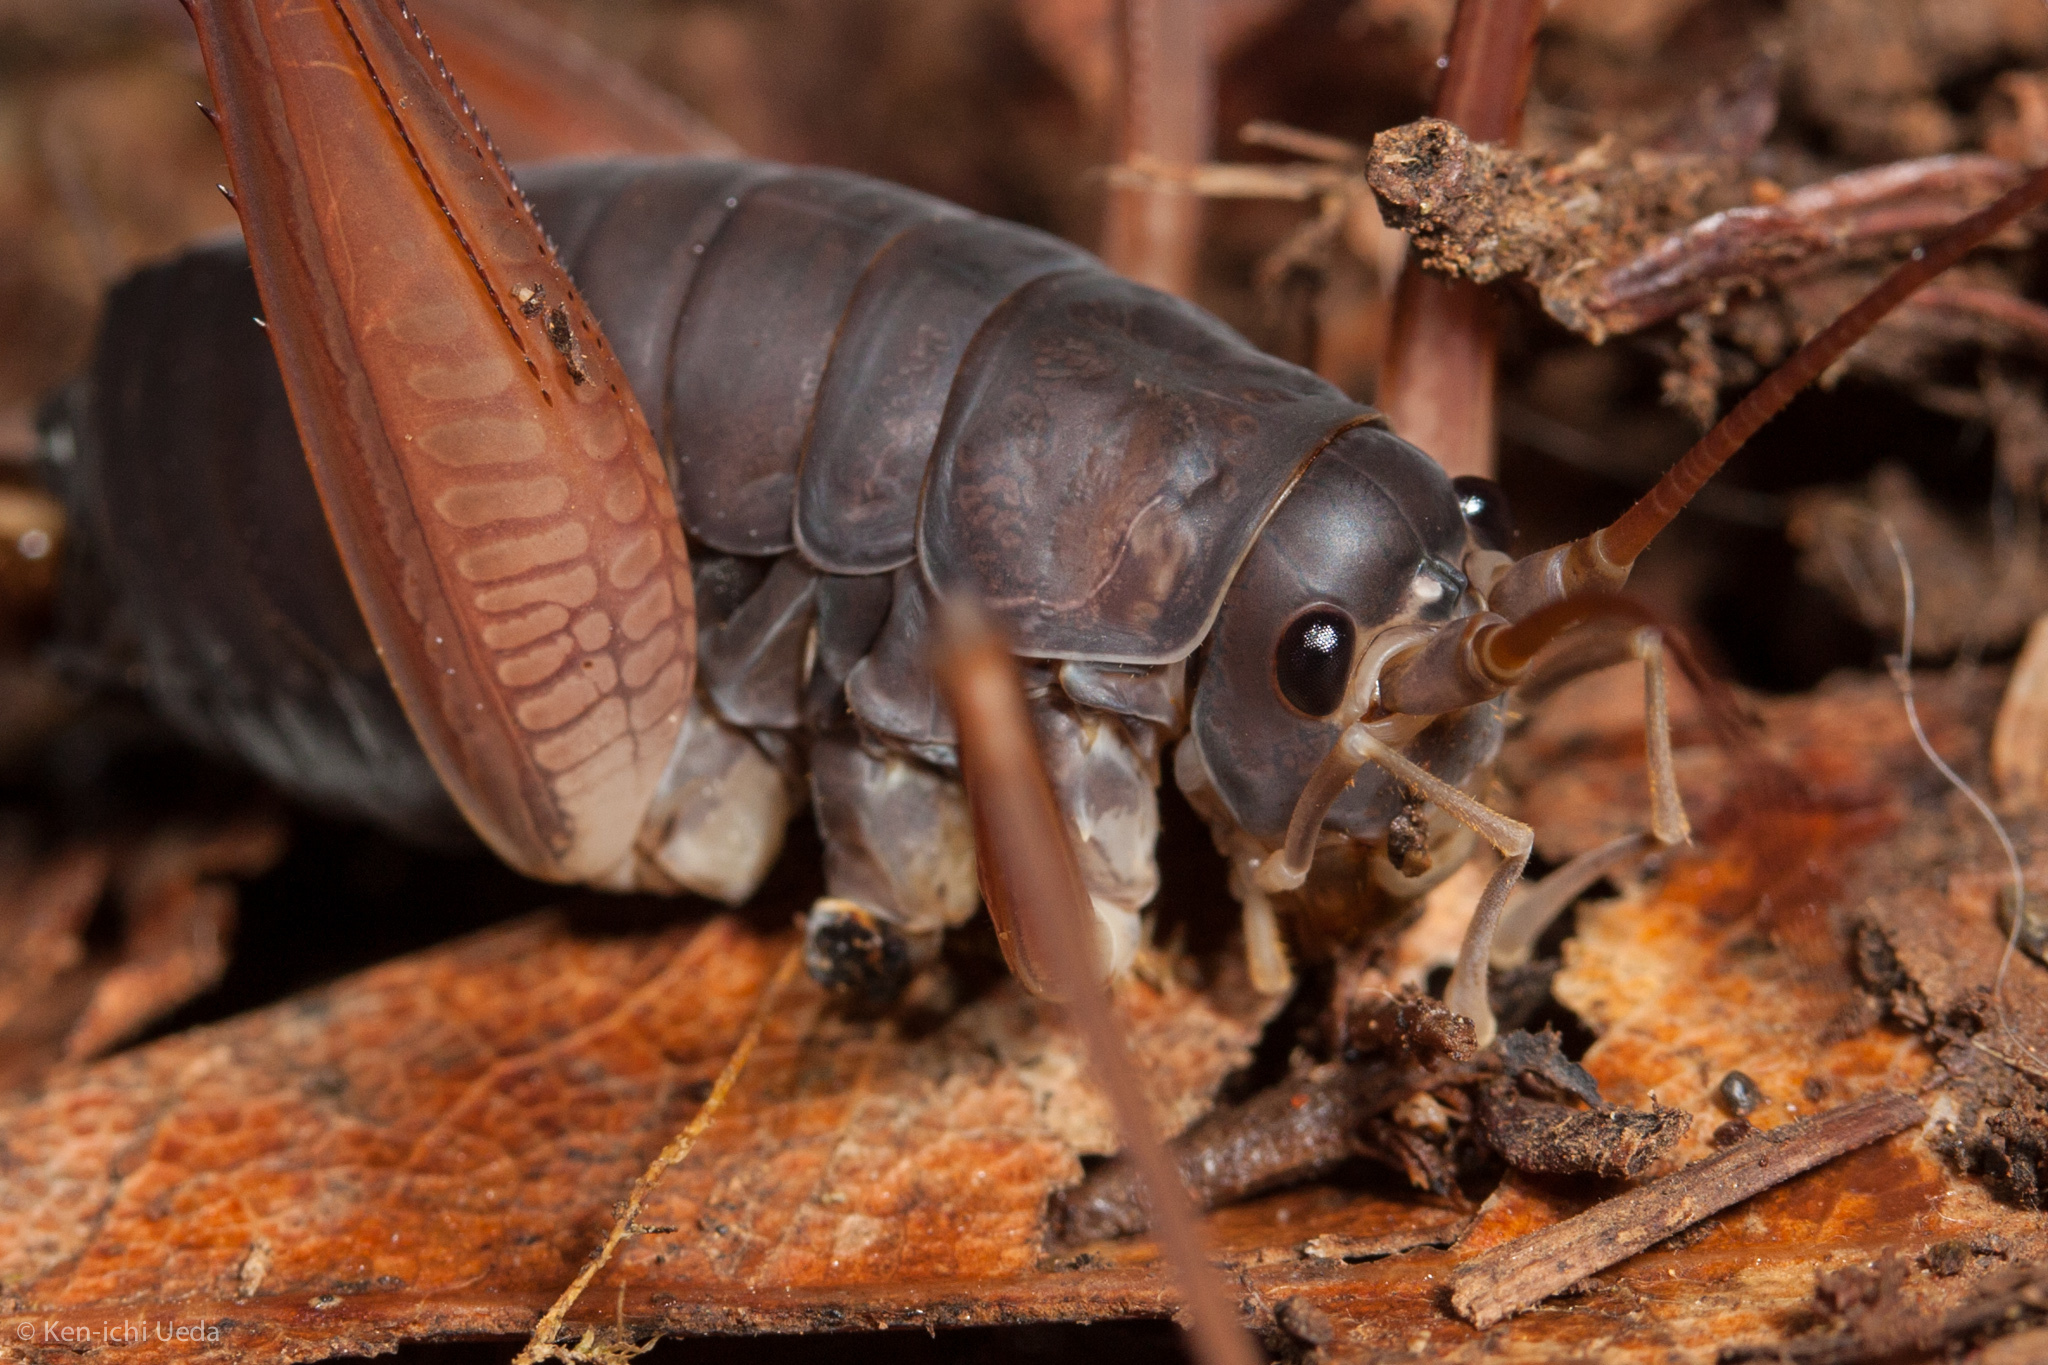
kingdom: Animalia
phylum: Arthropoda
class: Insecta
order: Orthoptera
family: Rhaphidophoridae
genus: Tropidischia
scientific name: Tropidischia xanthostoma
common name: Square-legged camel cricket
